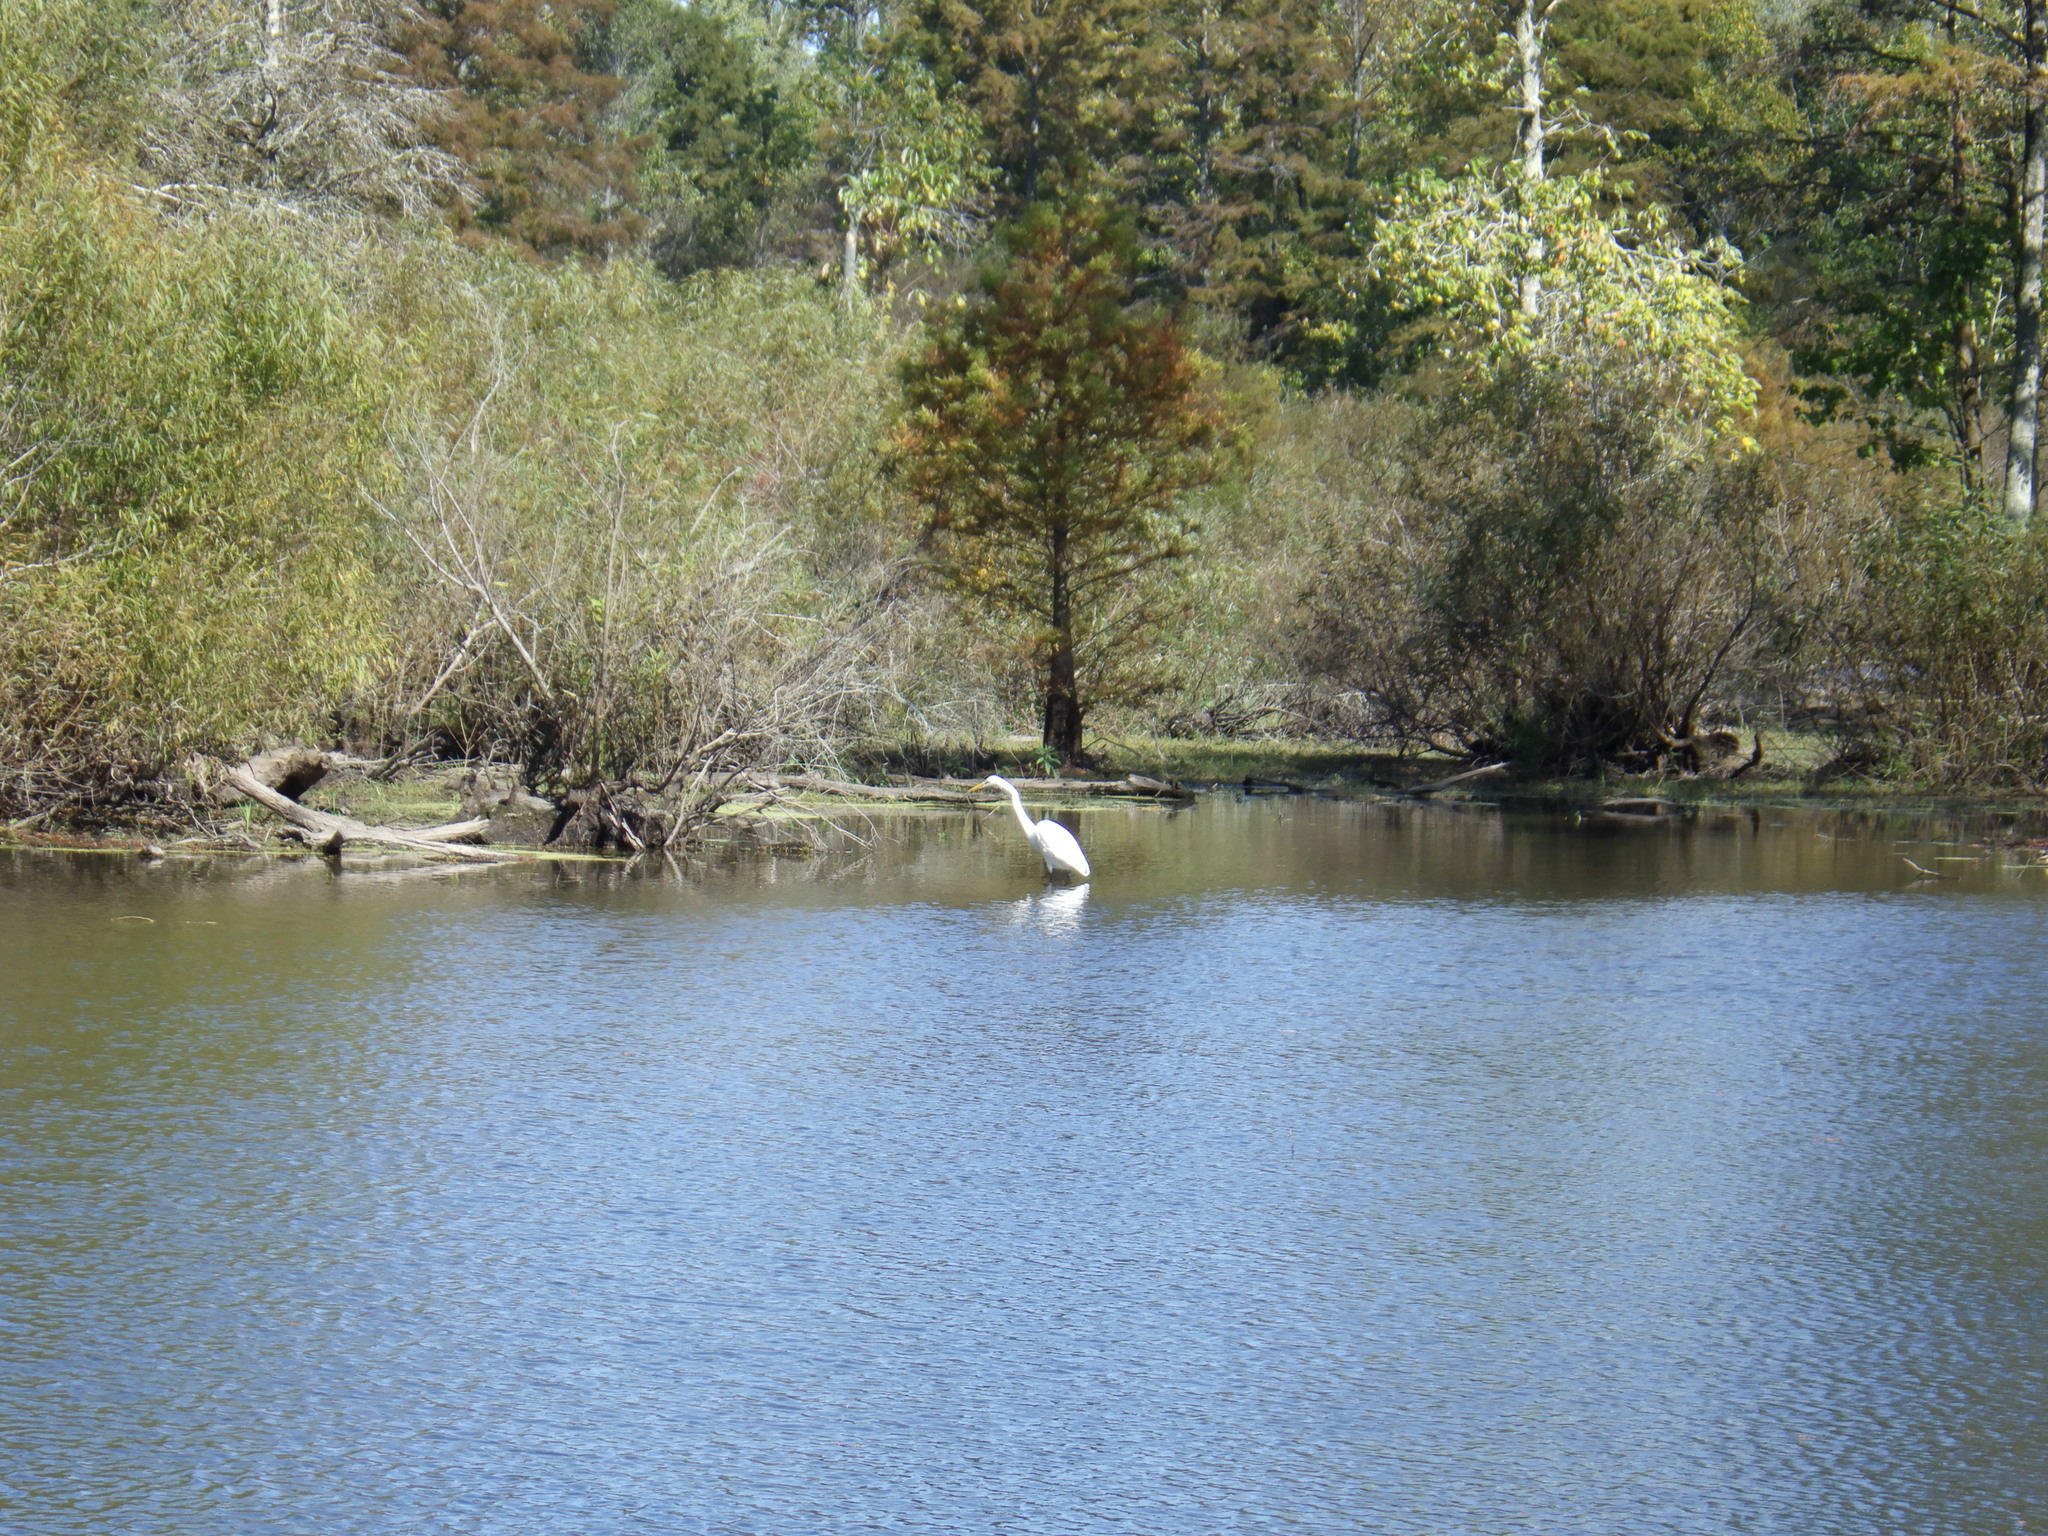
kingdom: Animalia
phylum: Chordata
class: Aves
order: Pelecaniformes
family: Ardeidae
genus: Ardea
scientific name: Ardea alba
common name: Great egret
